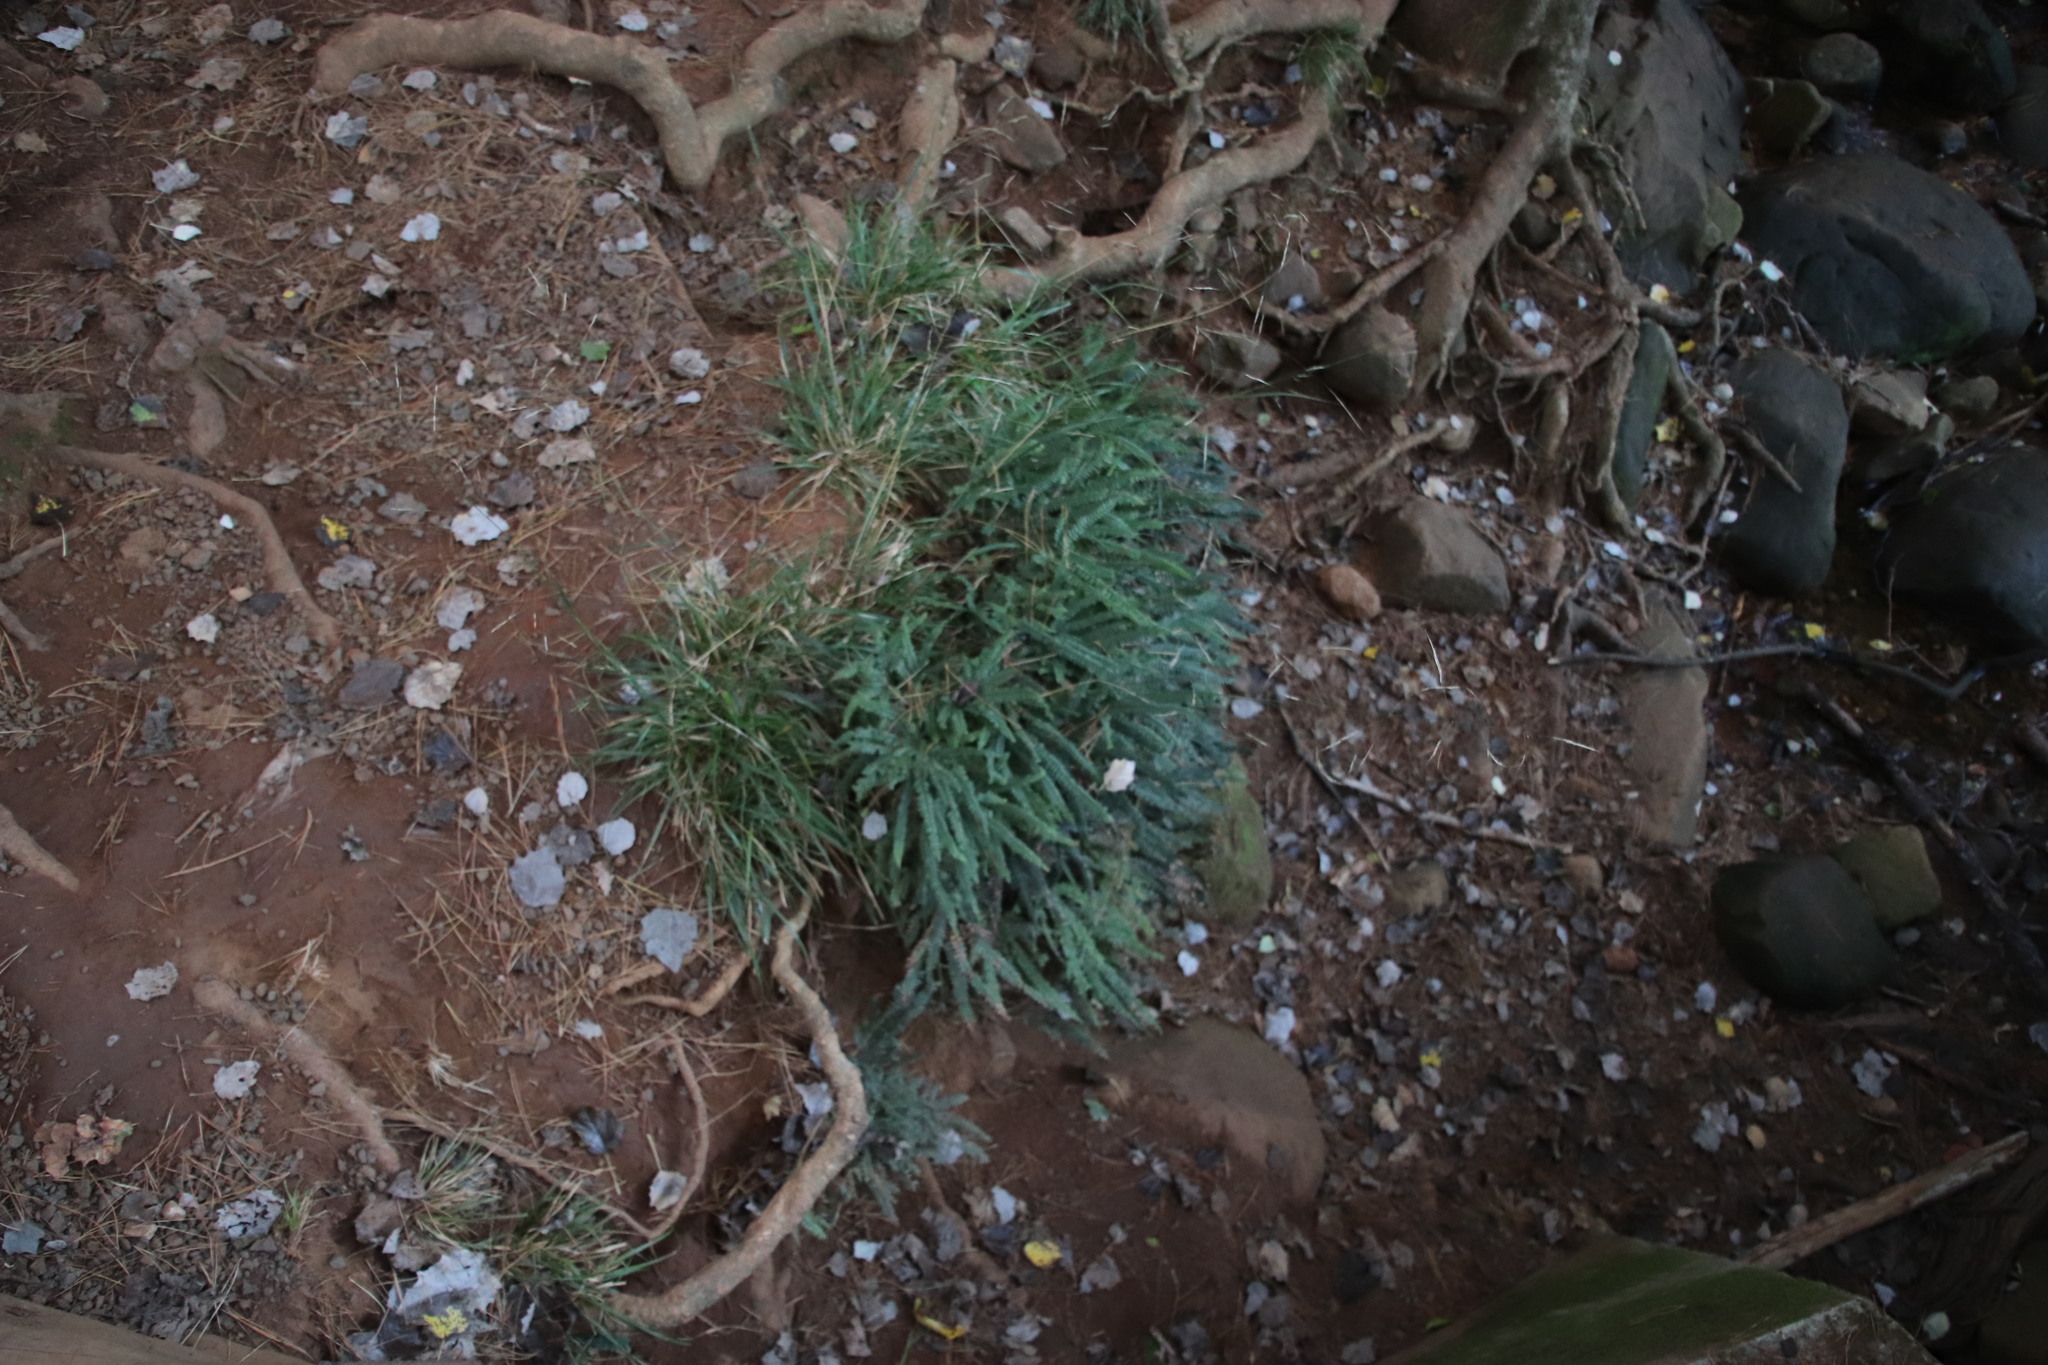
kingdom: Plantae
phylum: Tracheophyta
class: Polypodiopsida
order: Polypodiales
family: Pteridaceae
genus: Adiantum
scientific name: Adiantum hispidulum
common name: Rough maidenhair
